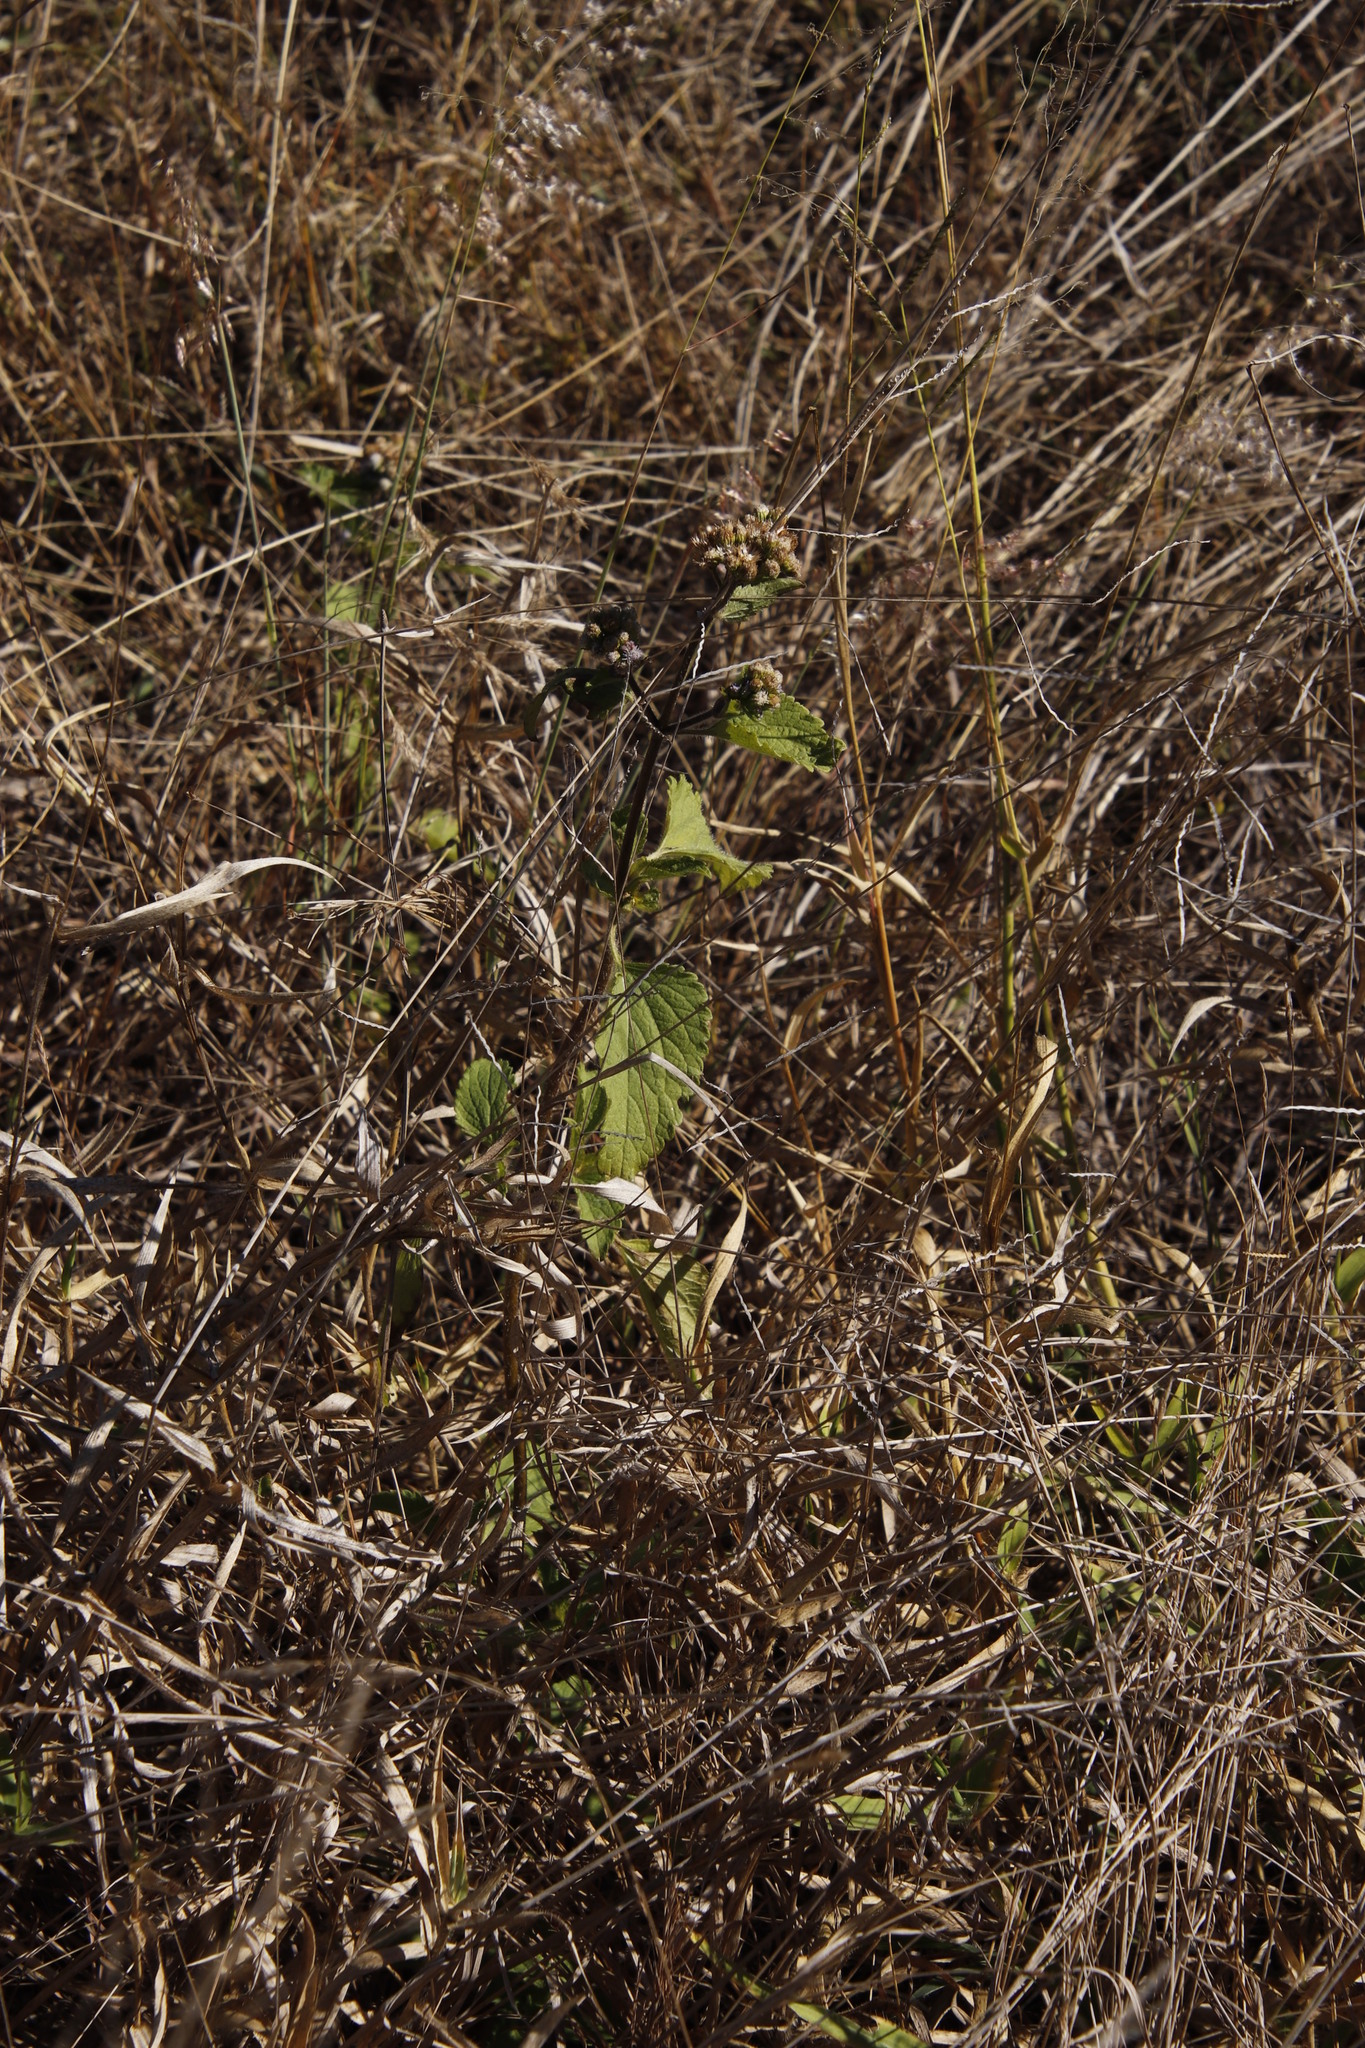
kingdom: Plantae
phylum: Tracheophyta
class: Magnoliopsida
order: Asterales
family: Asteraceae
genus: Chromolaena
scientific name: Chromolaena odorata
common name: Siamweed
